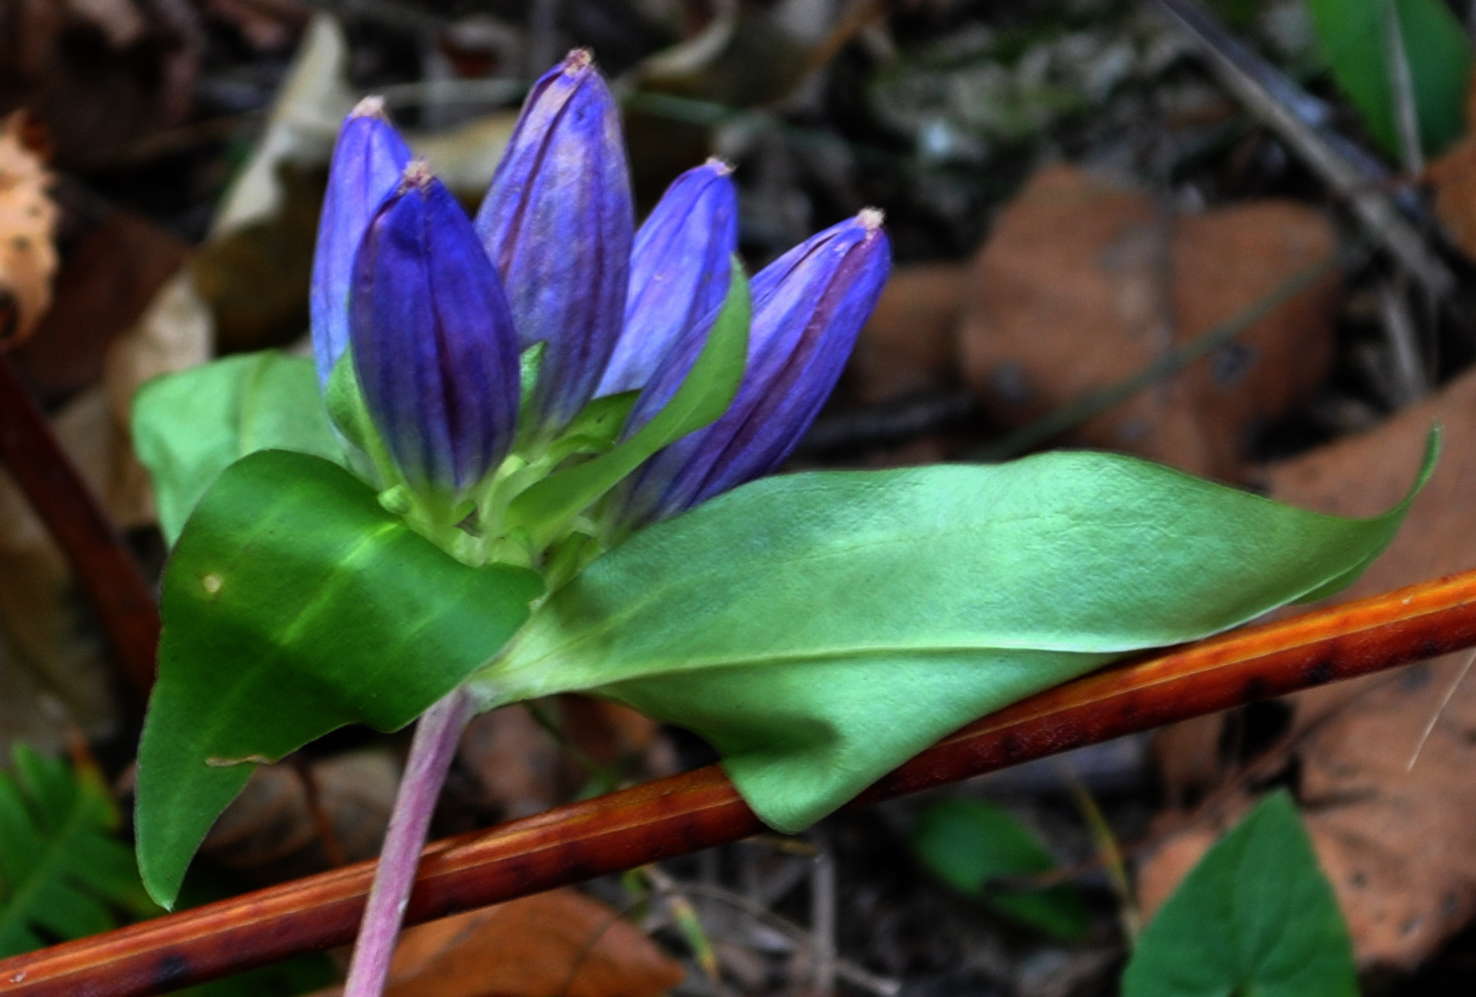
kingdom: Plantae
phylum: Tracheophyta
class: Magnoliopsida
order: Gentianales
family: Gentianaceae
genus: Gentiana
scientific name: Gentiana andrewsii
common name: Bottle gentian
